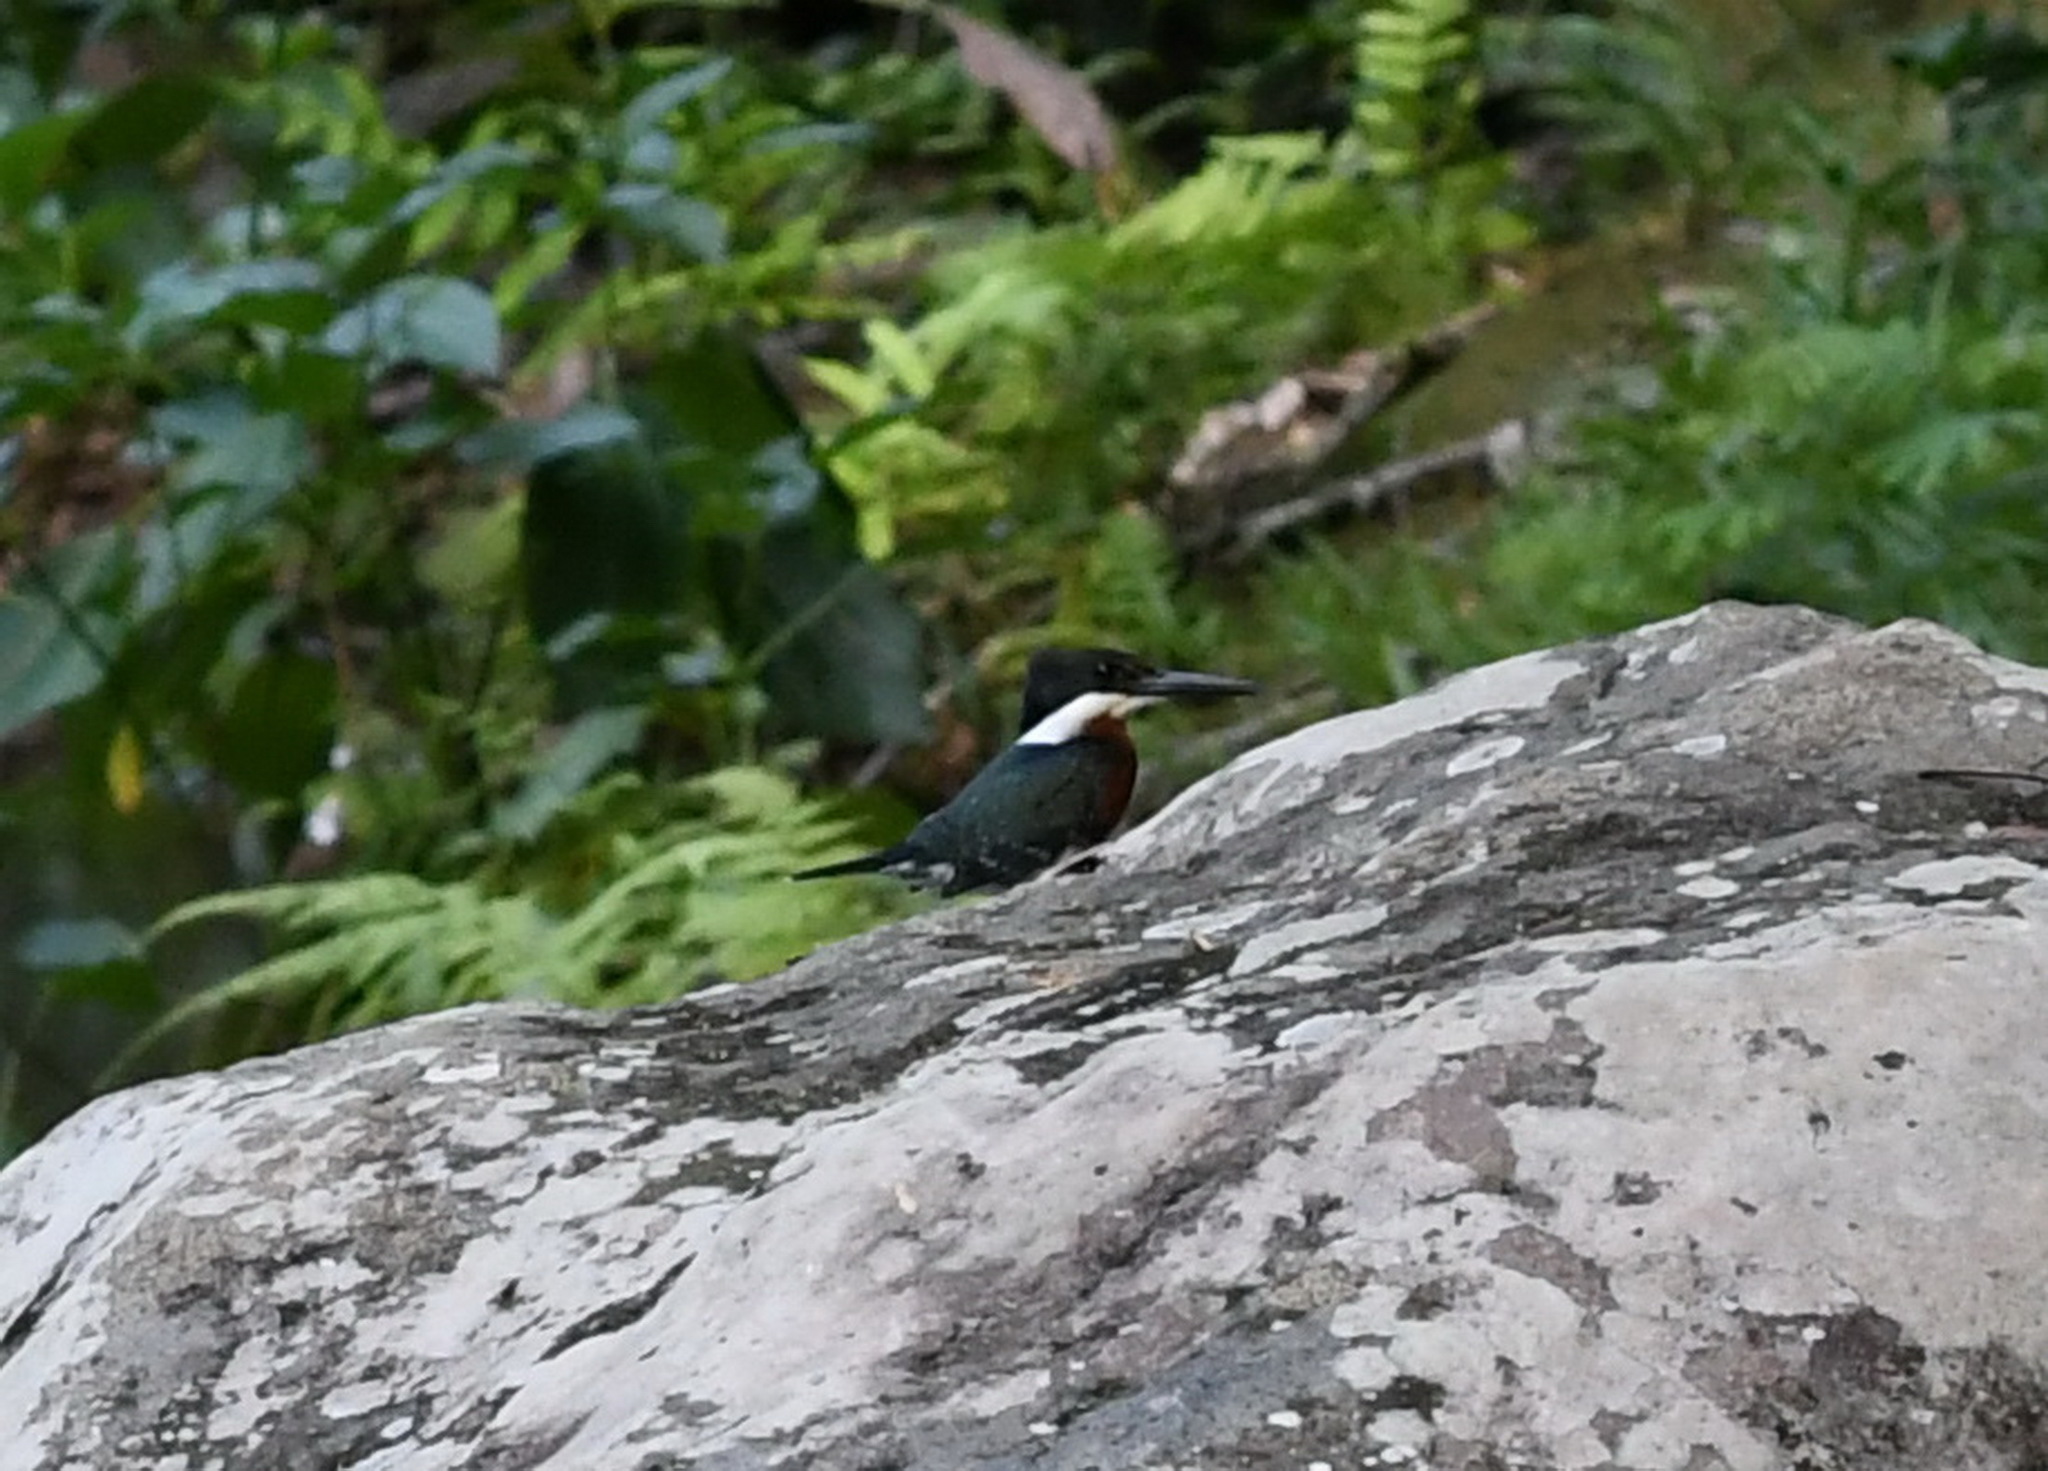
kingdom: Animalia
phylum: Chordata
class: Aves
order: Coraciiformes
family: Alcedinidae
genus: Chloroceryle
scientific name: Chloroceryle americana
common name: Green kingfisher
